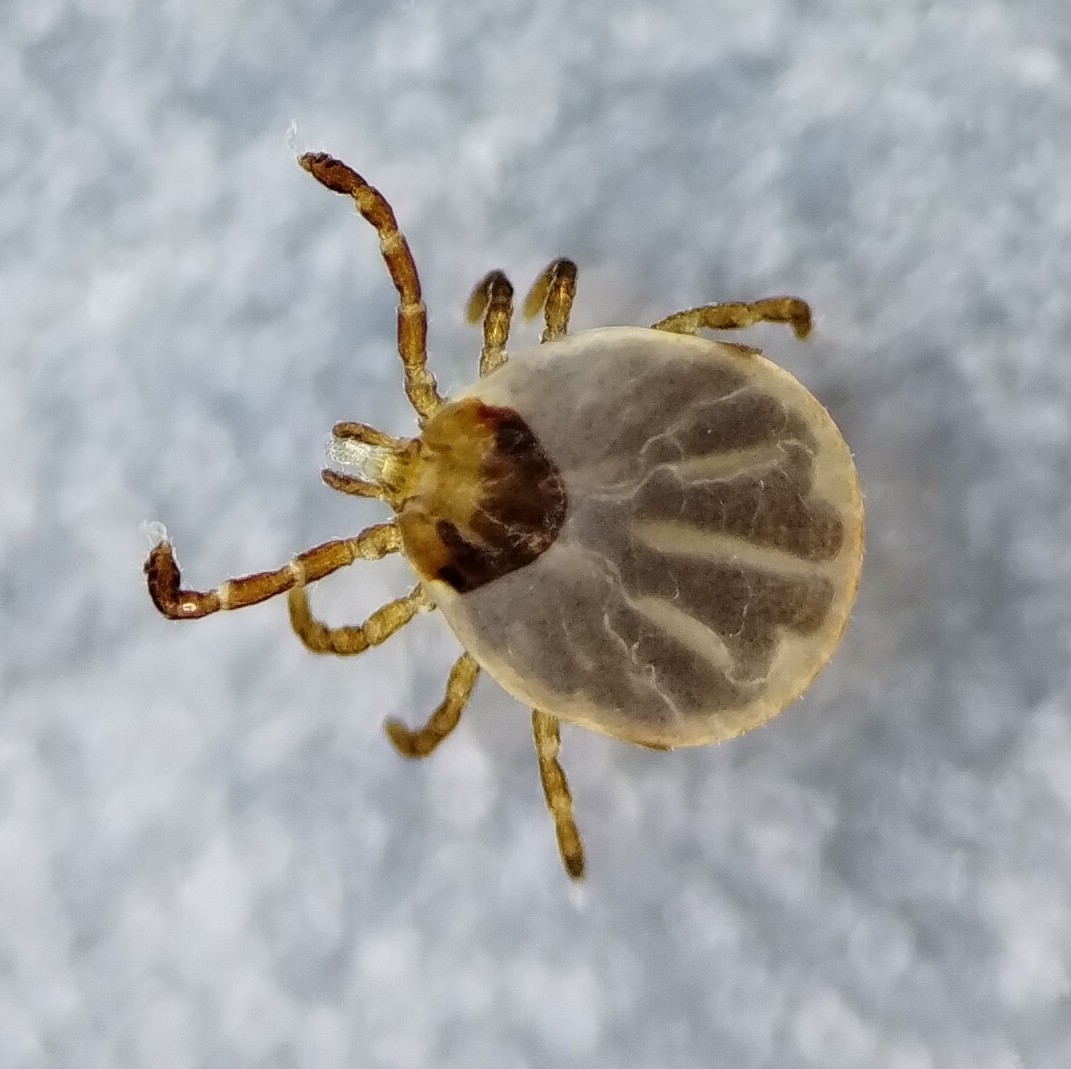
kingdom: Animalia
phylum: Arthropoda
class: Arachnida
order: Ixodida
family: Ixodidae
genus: Amblyomma
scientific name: Amblyomma americanum
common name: Lone star tick
